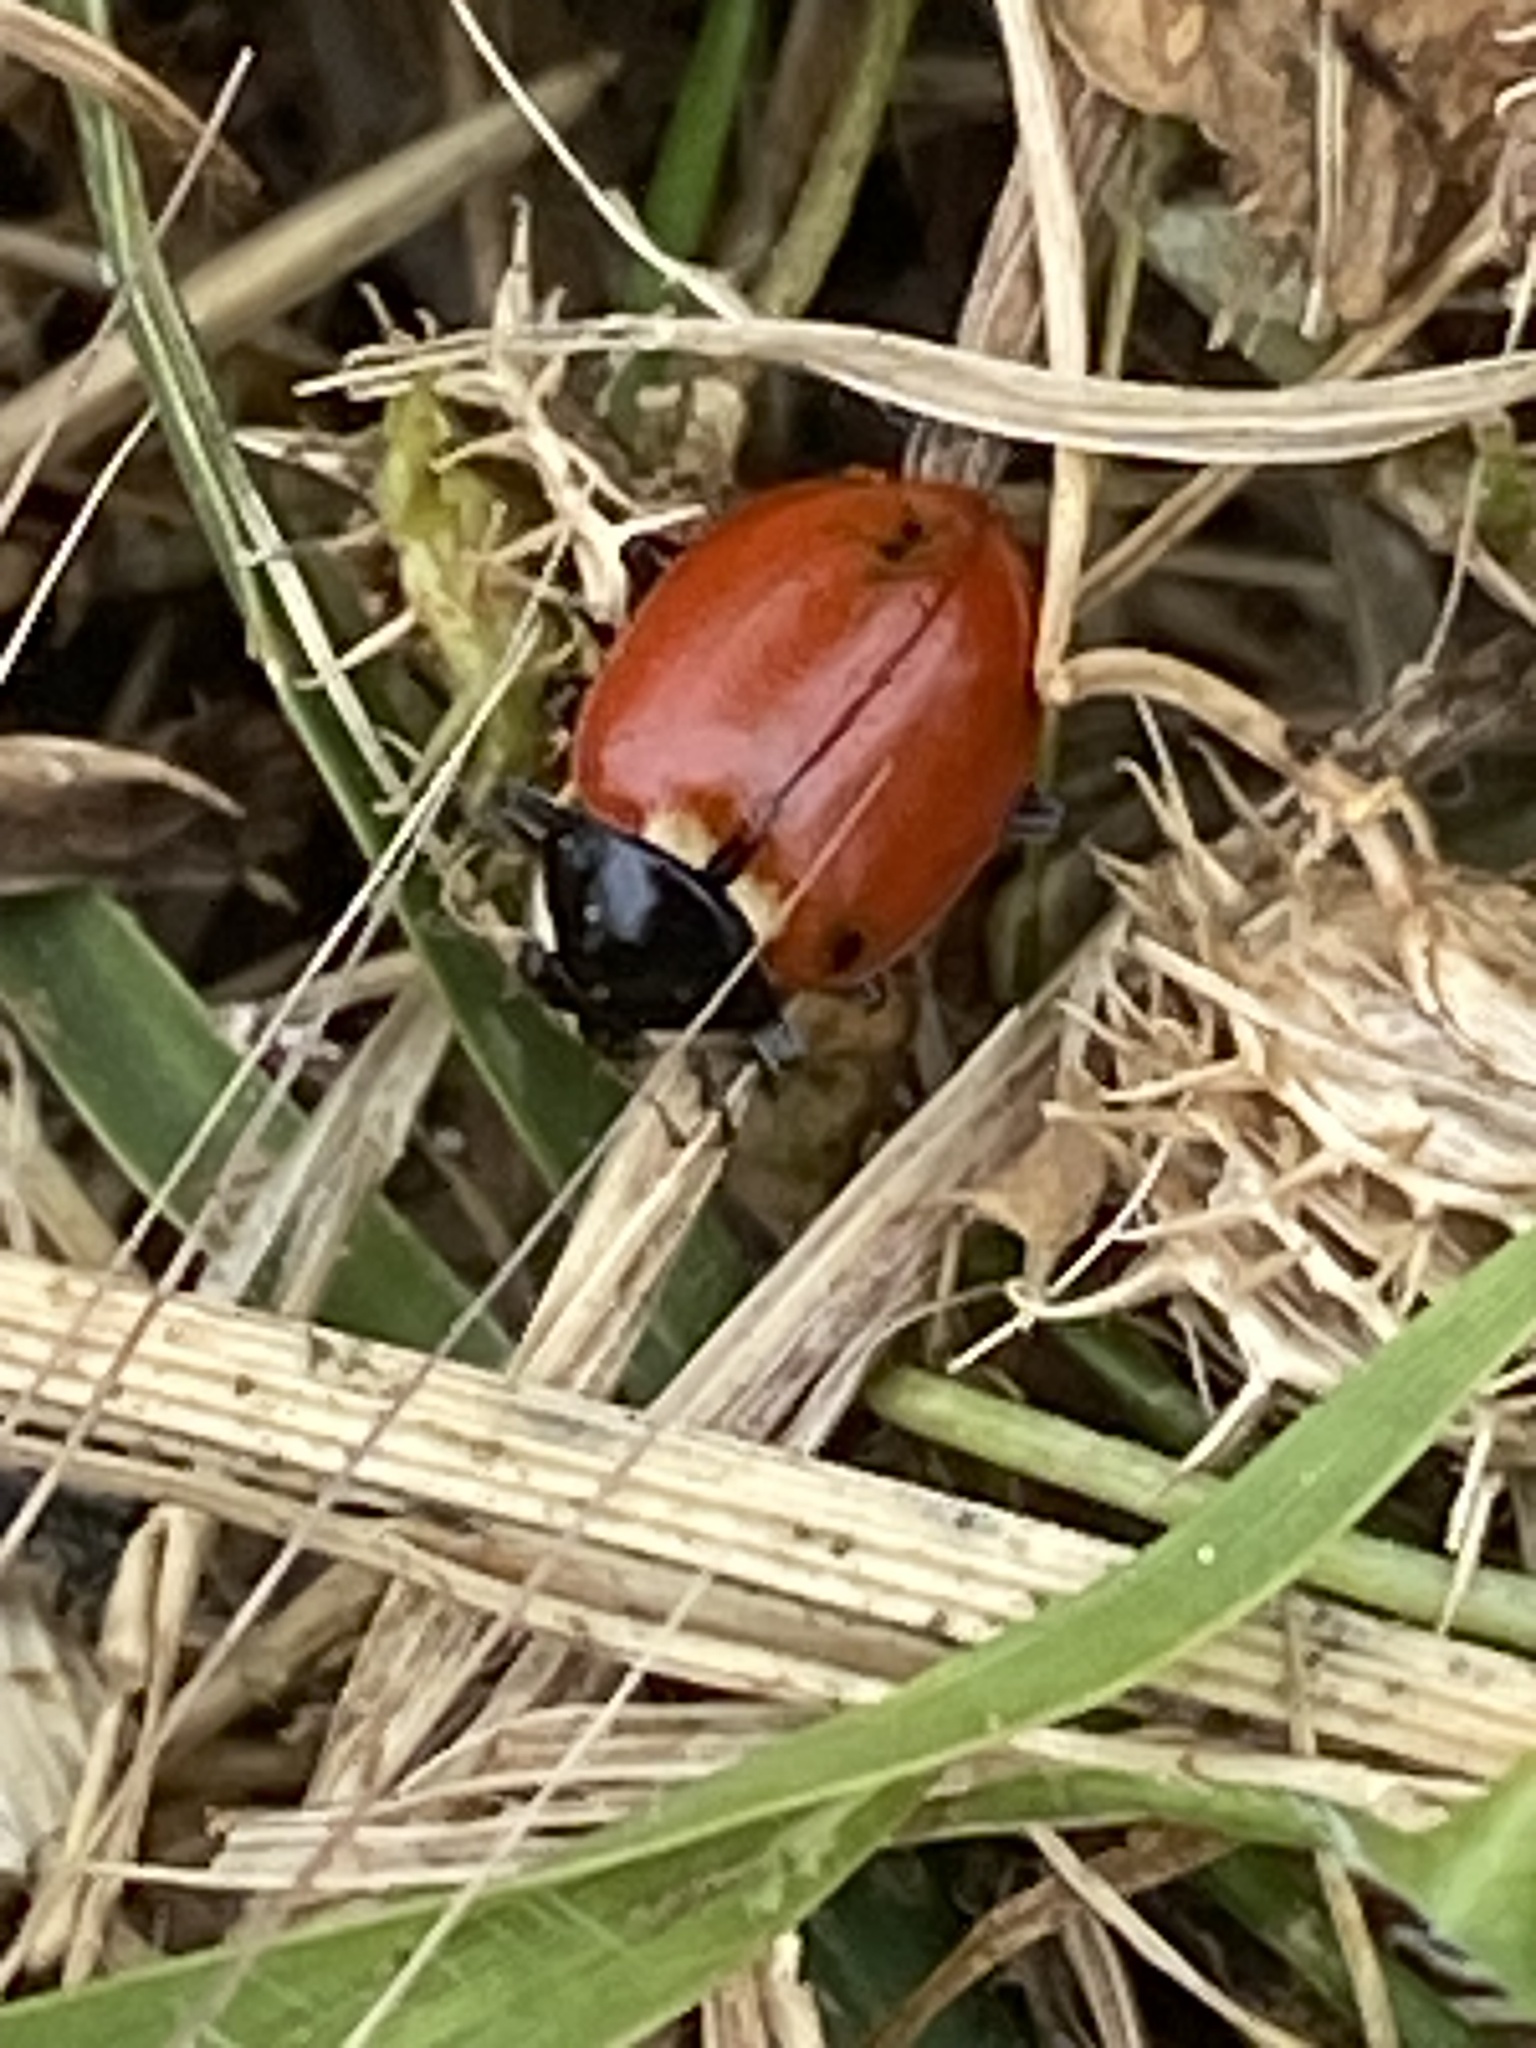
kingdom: Animalia
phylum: Arthropoda
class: Insecta
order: Coleoptera
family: Coccinellidae
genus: Hippodamia
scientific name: Hippodamia quinquesignata
